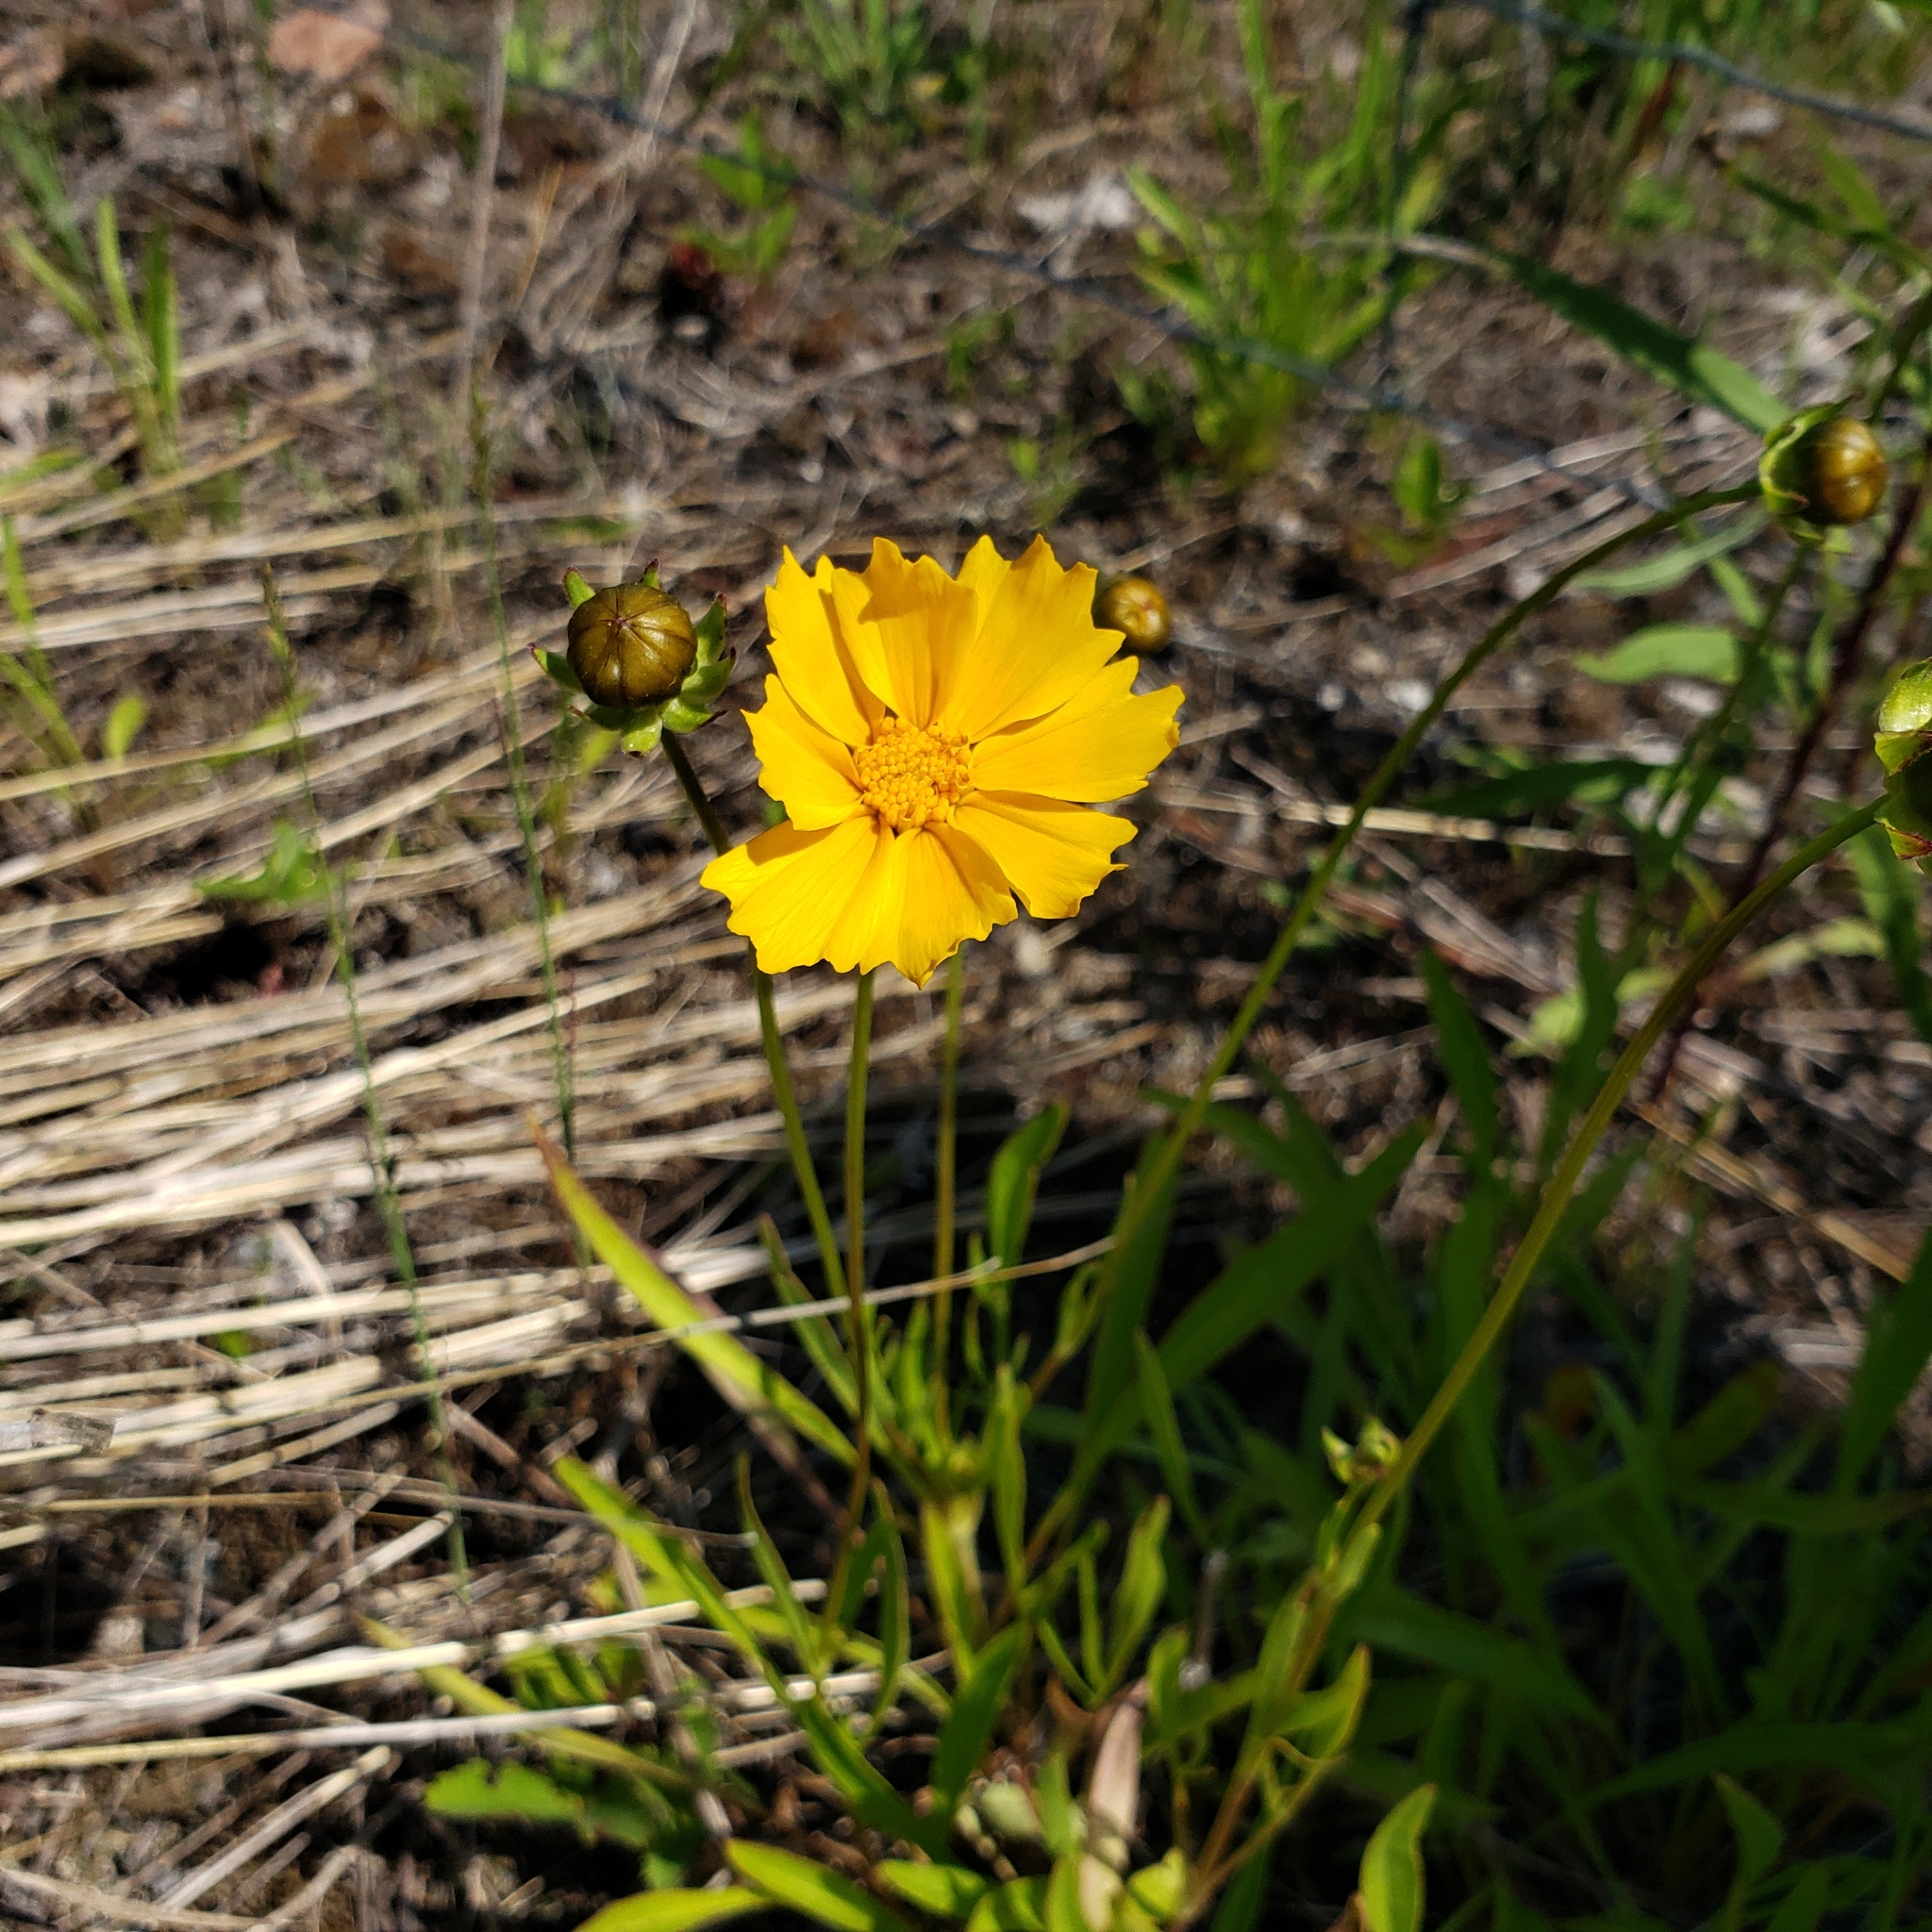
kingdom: Plantae
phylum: Tracheophyta
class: Magnoliopsida
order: Asterales
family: Asteraceae
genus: Coreopsis
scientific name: Coreopsis lanceolata
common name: Garden coreopsis
